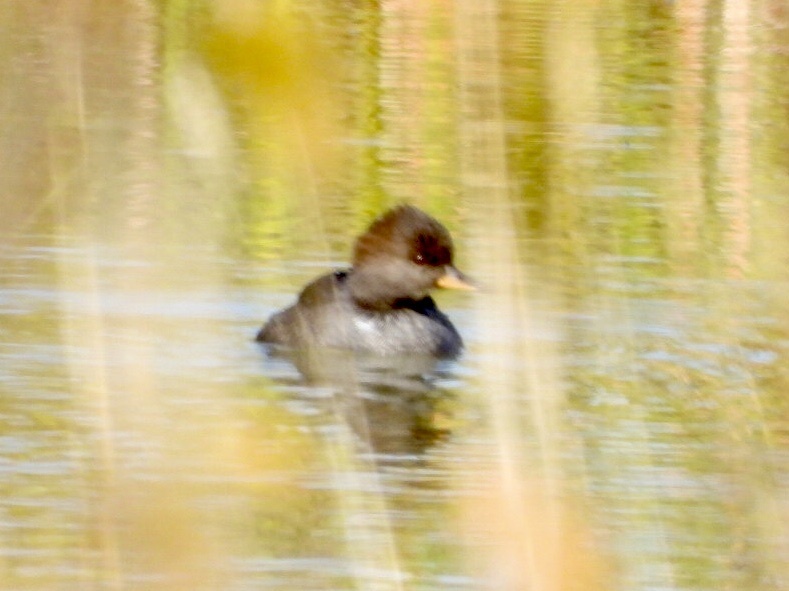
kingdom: Animalia
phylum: Chordata
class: Aves
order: Anseriformes
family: Anatidae
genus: Lophodytes
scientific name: Lophodytes cucullatus
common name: Hooded merganser
